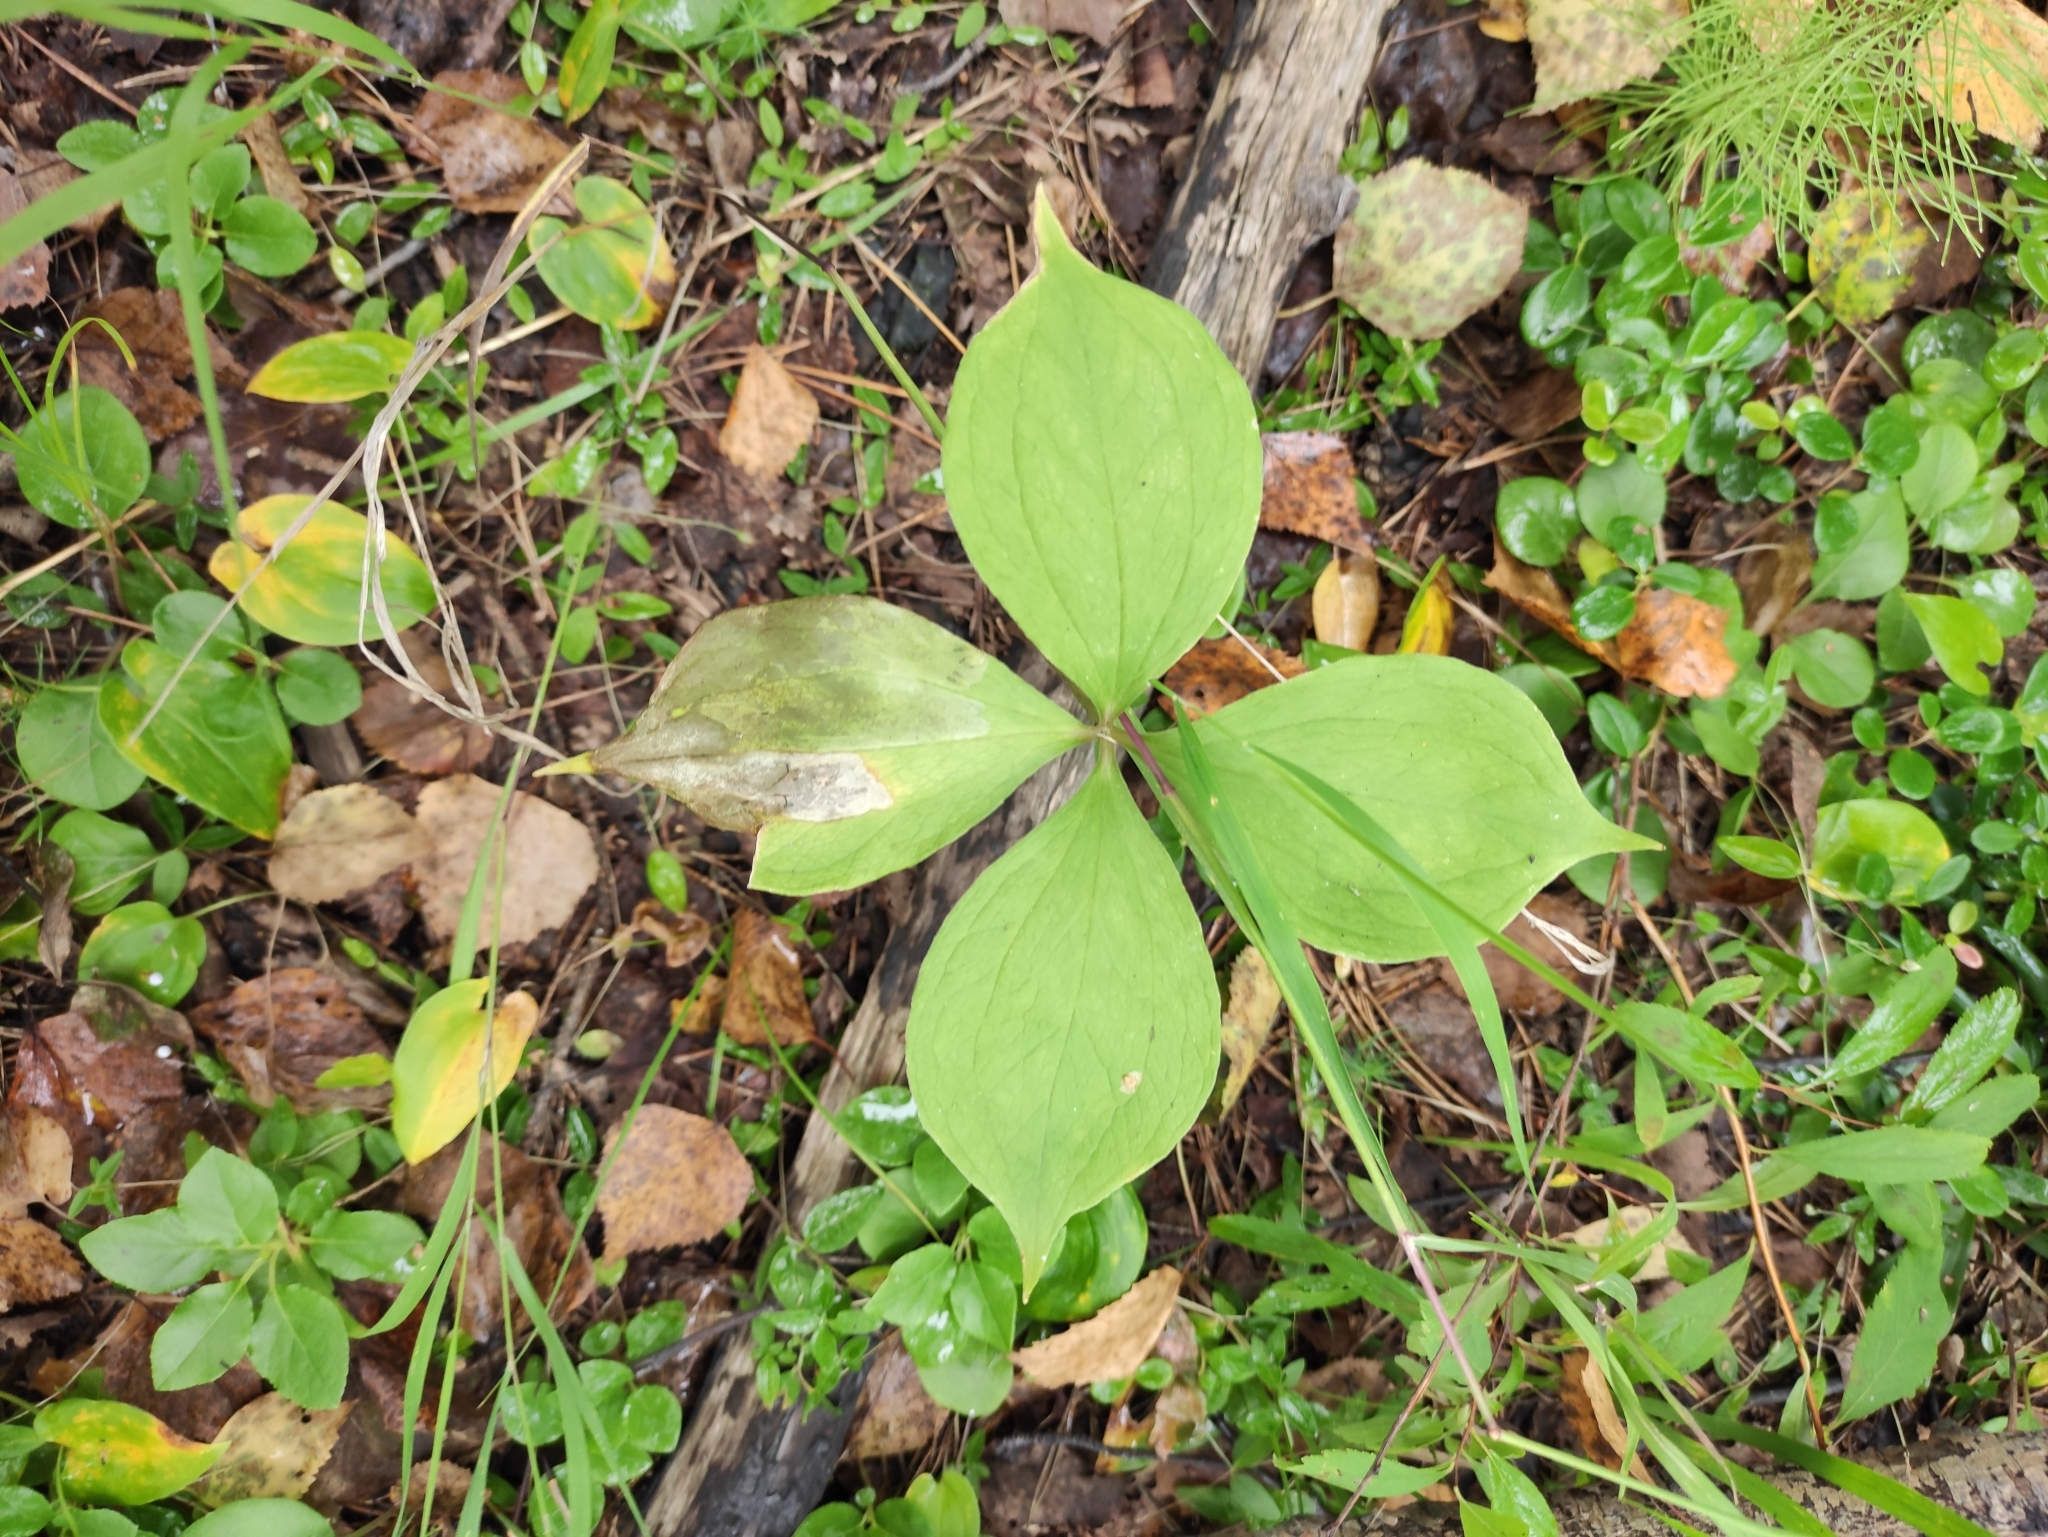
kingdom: Plantae
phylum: Tracheophyta
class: Liliopsida
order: Liliales
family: Melanthiaceae
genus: Paris
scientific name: Paris quadrifolia
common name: Herb-paris
